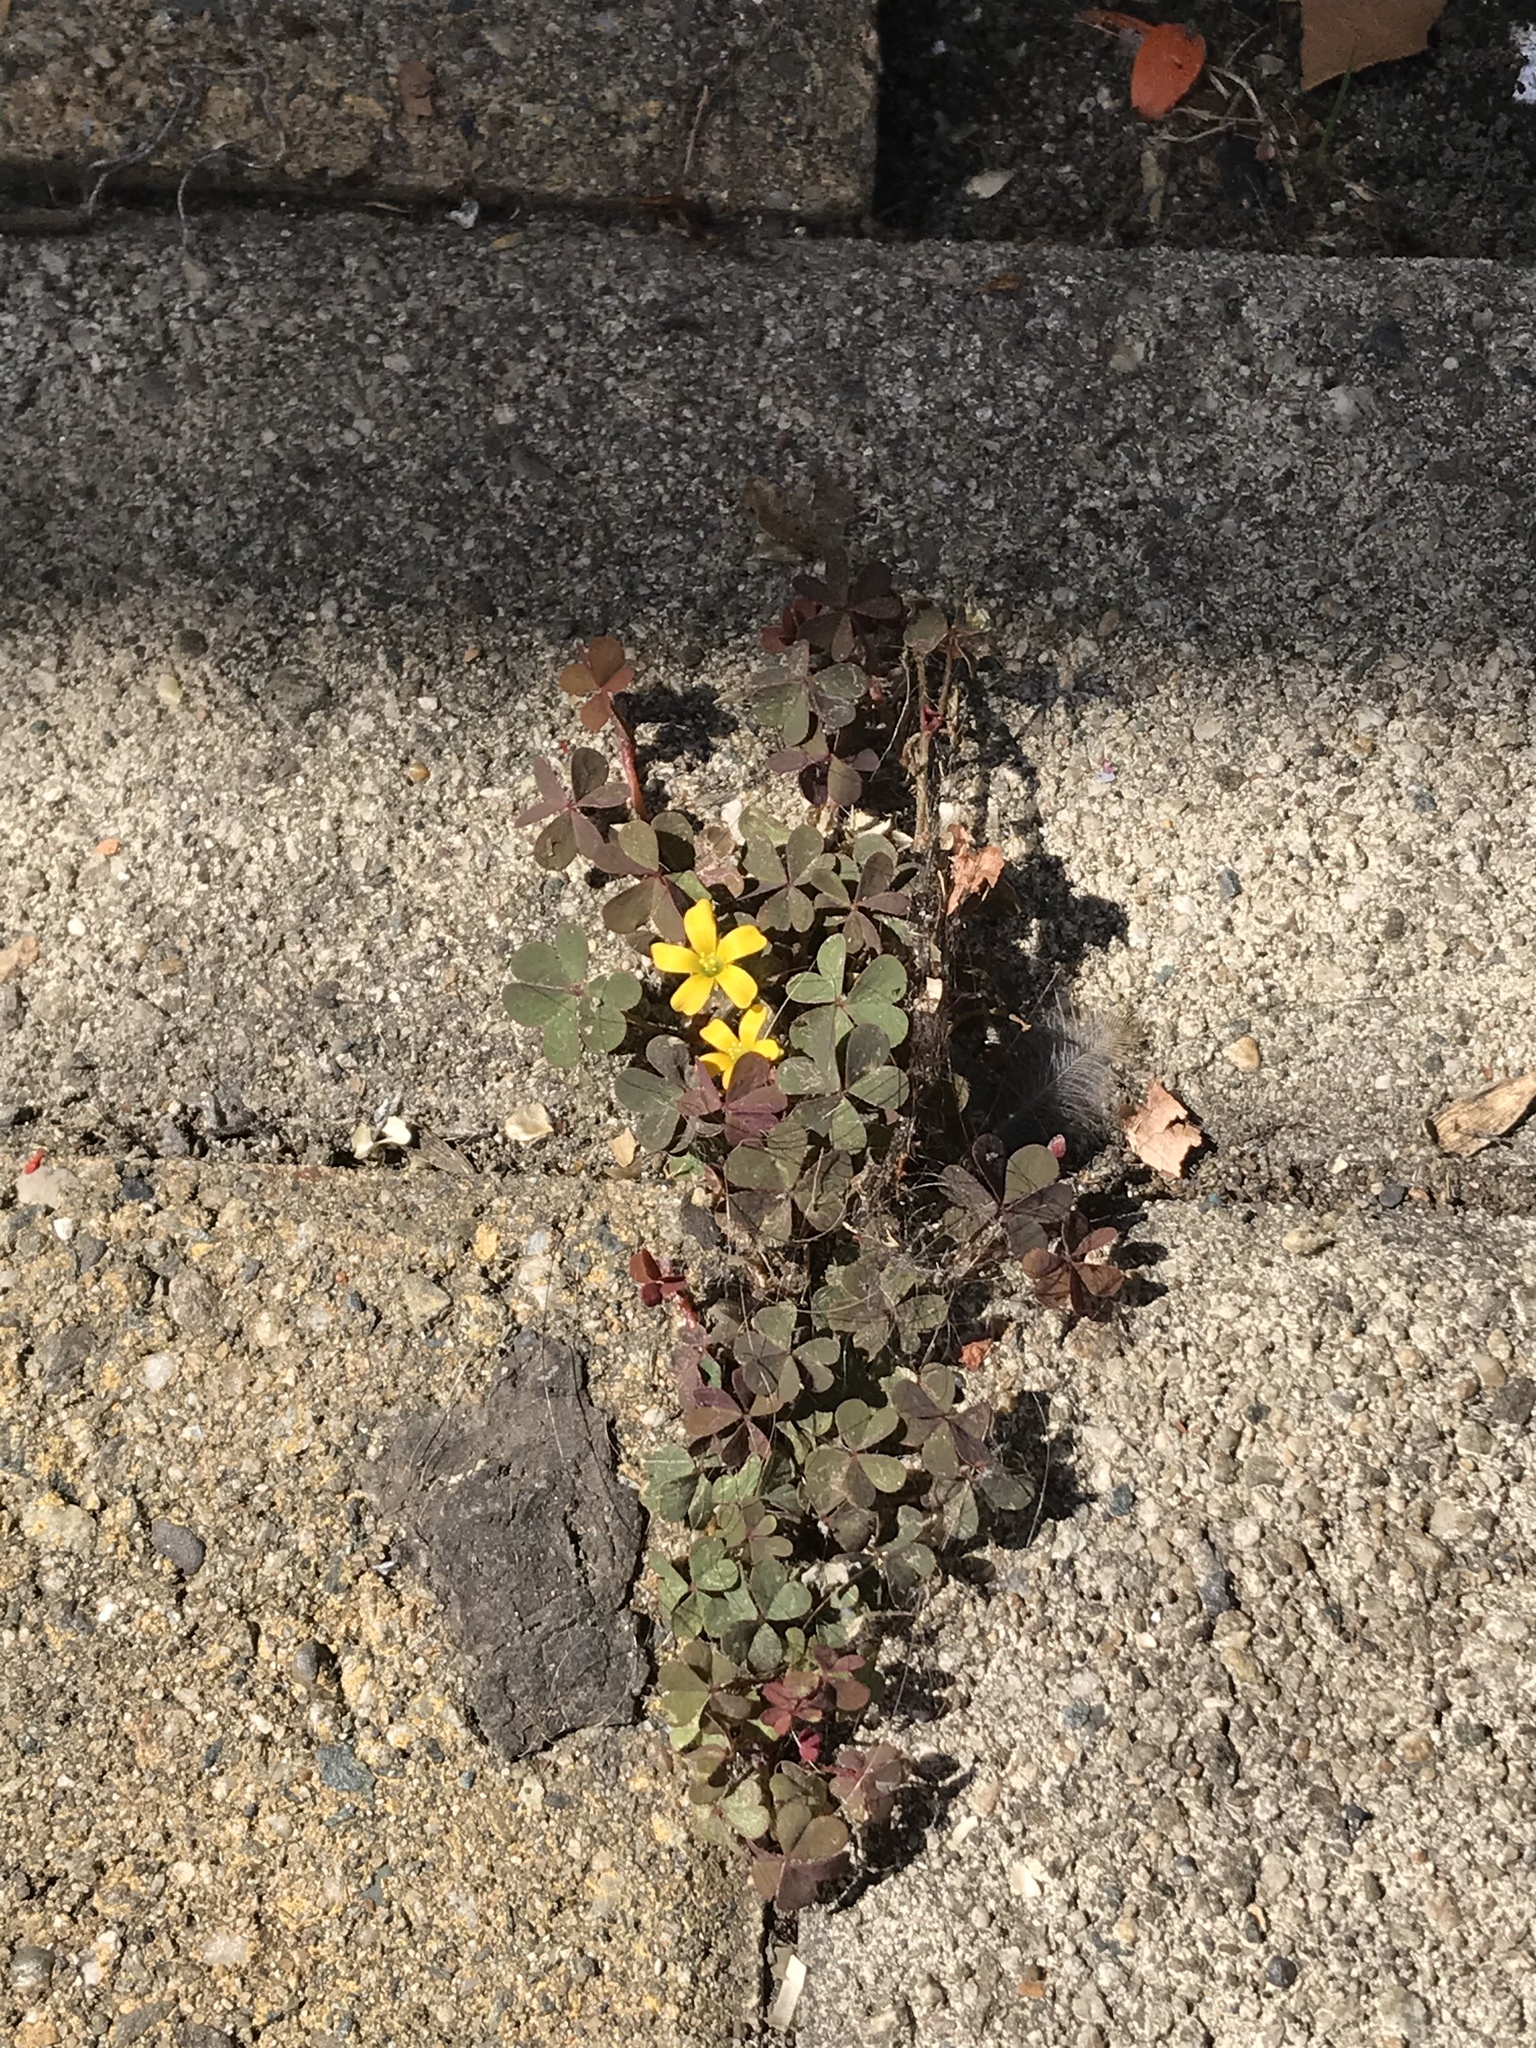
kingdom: Plantae
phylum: Tracheophyta
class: Magnoliopsida
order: Oxalidales
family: Oxalidaceae
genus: Oxalis
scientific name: Oxalis corniculata
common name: Procumbent yellow-sorrel
